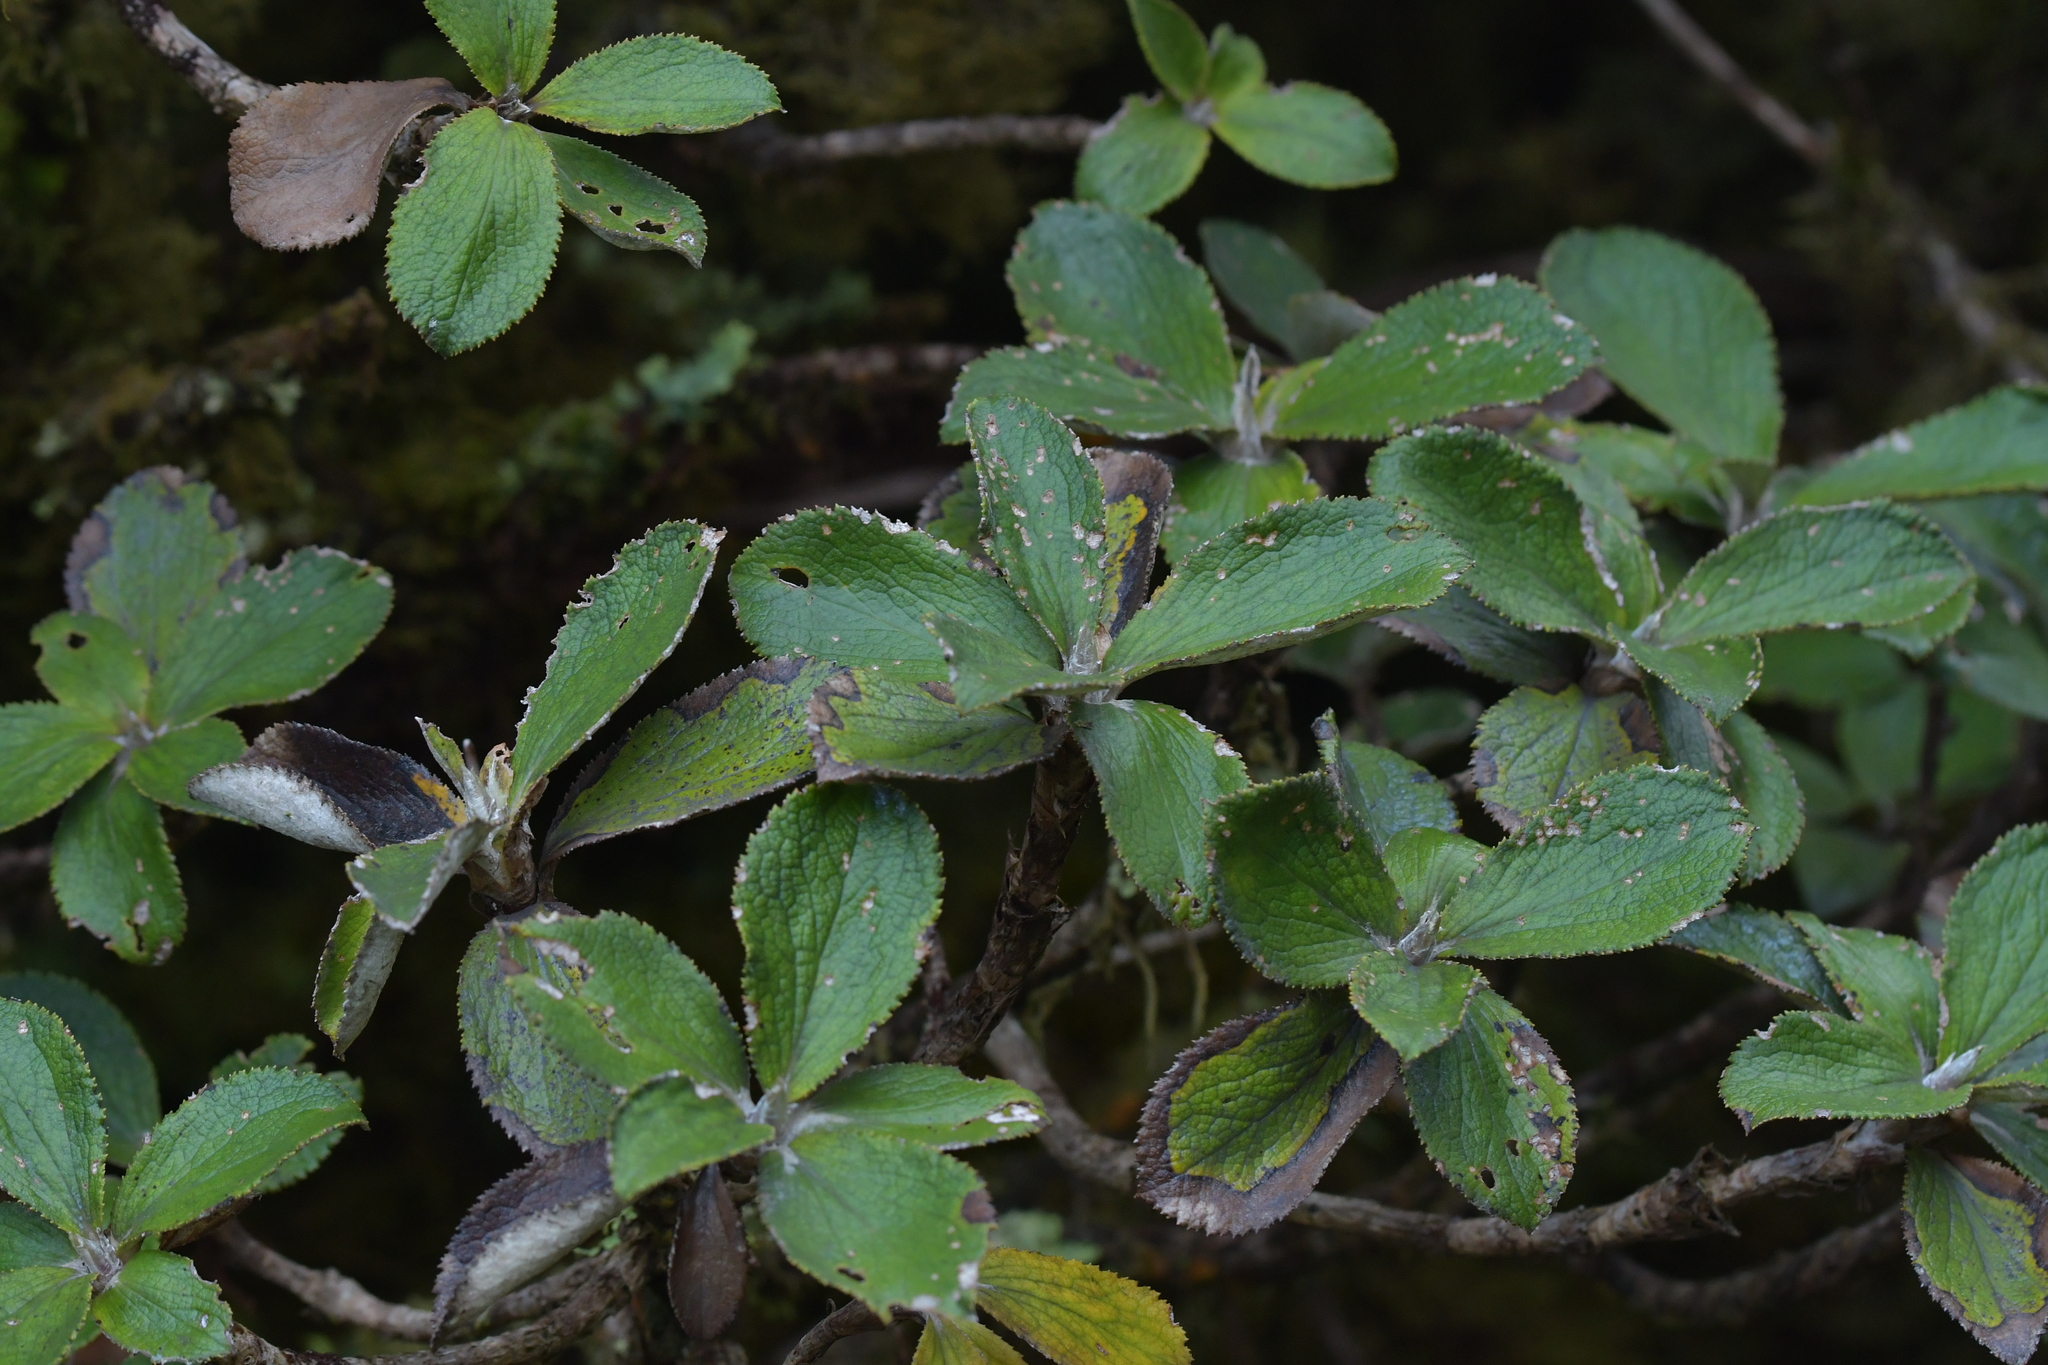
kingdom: Plantae
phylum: Tracheophyta
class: Magnoliopsida
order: Asterales
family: Asteraceae
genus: Macrolearia
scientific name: Macrolearia colensoi
